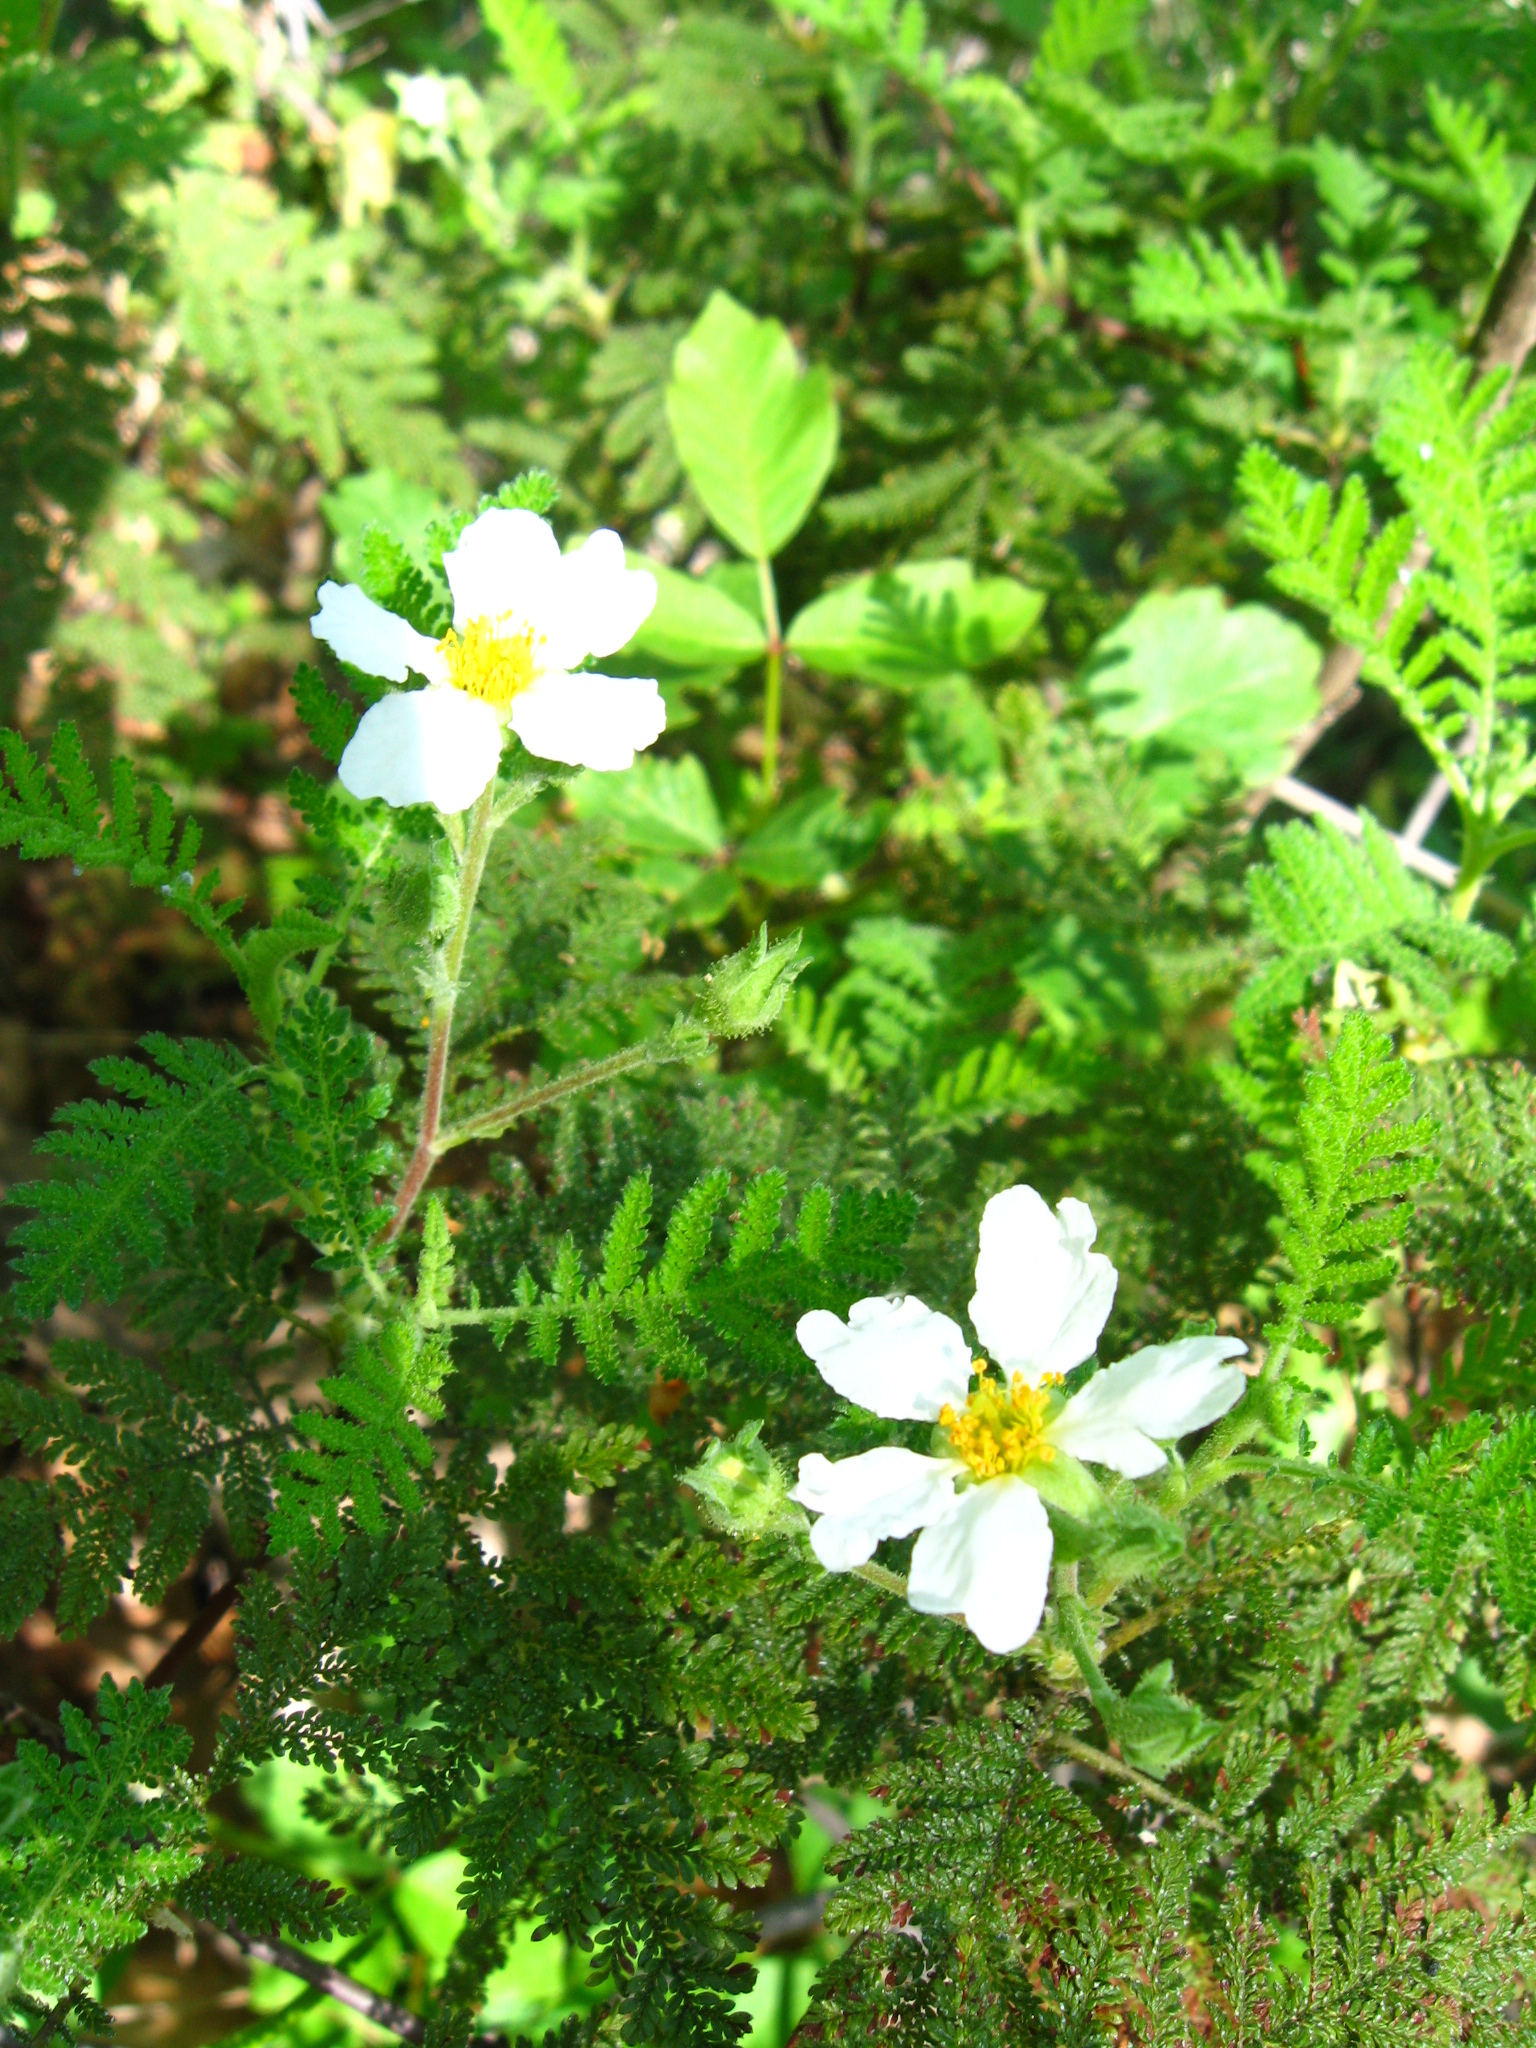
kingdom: Plantae
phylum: Tracheophyta
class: Magnoliopsida
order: Rosales
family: Rosaceae
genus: Chamaebatia
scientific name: Chamaebatia foliolosa
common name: Mountain misery
